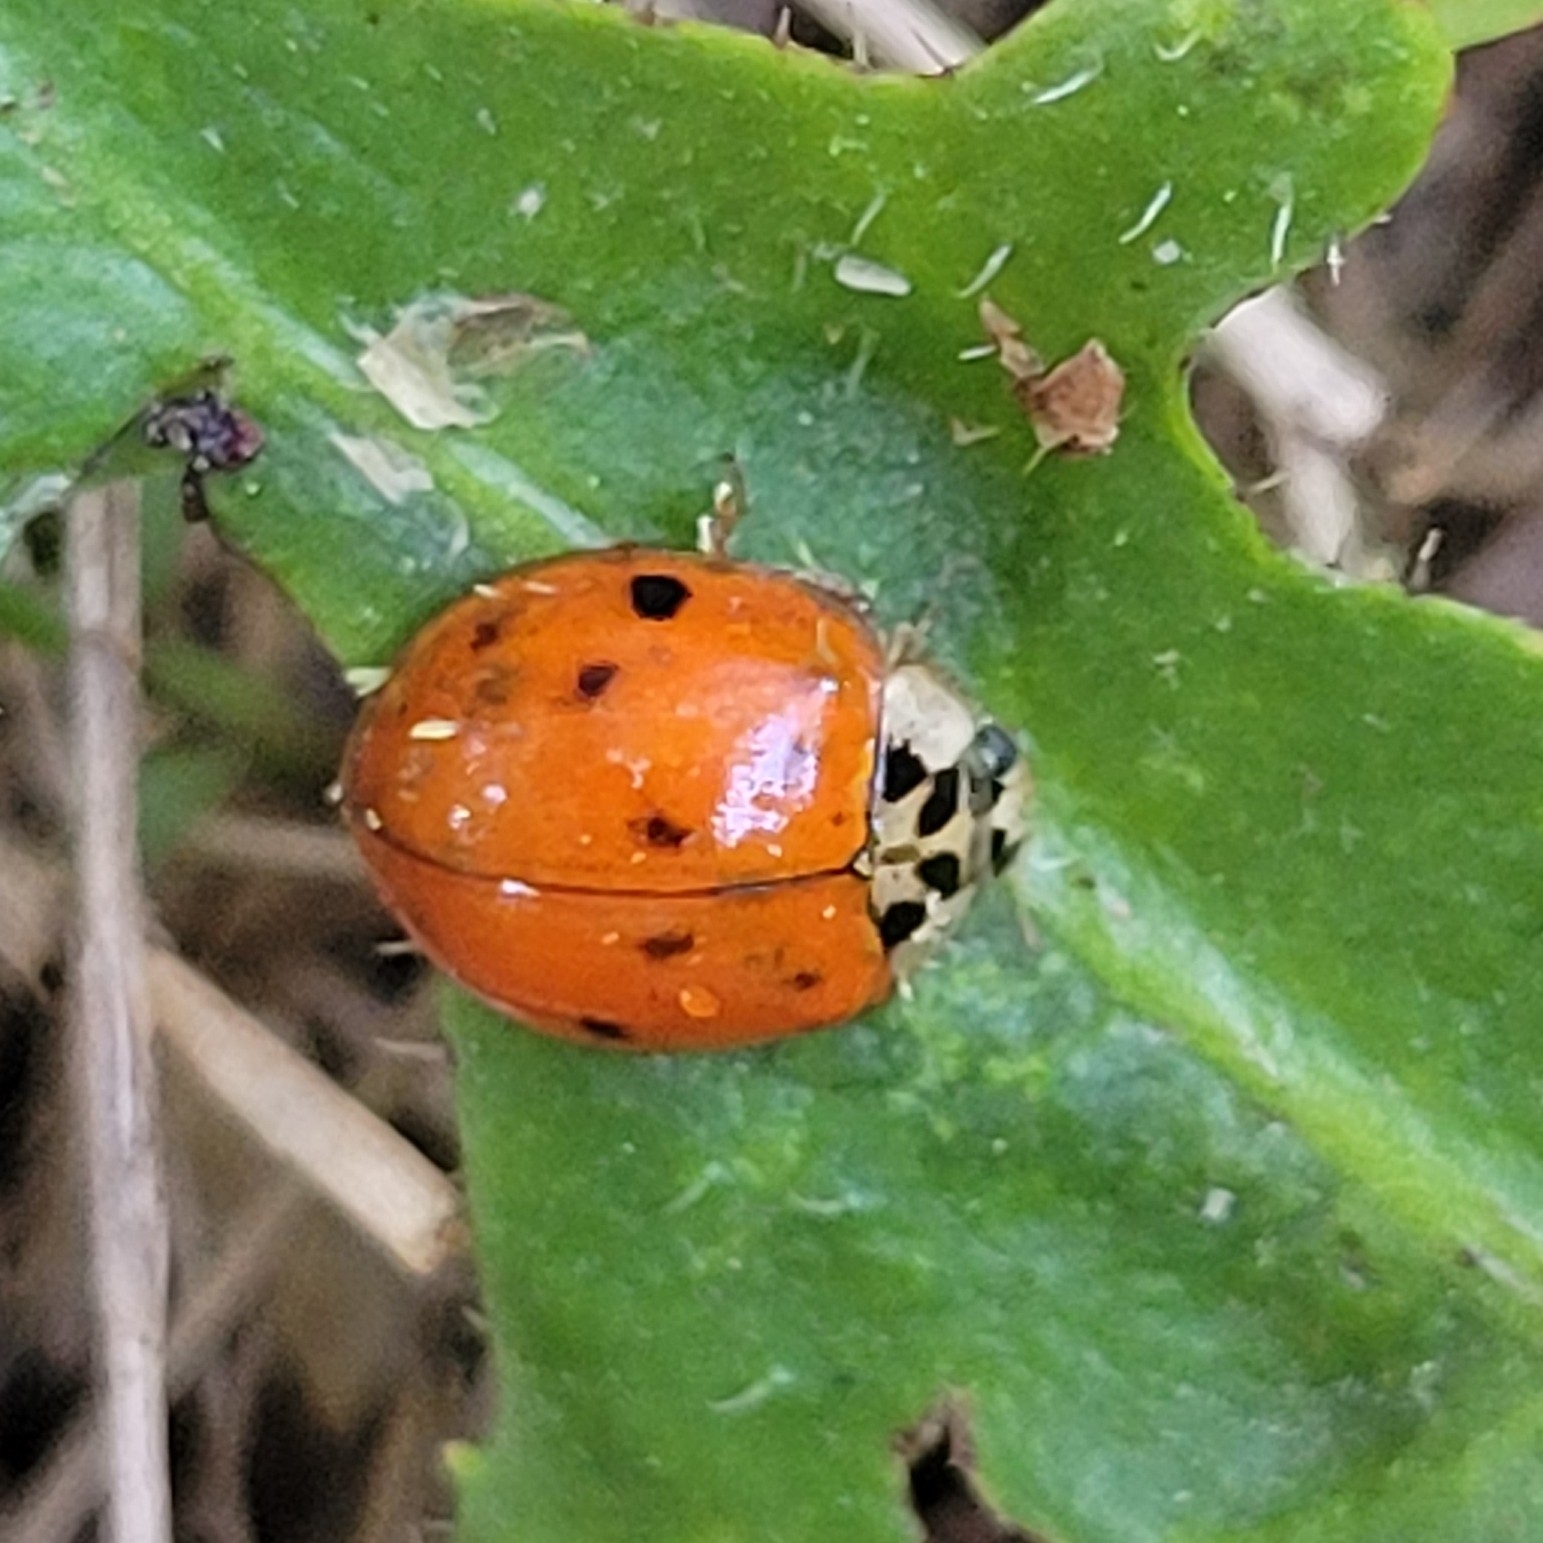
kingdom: Animalia
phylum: Arthropoda
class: Insecta
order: Coleoptera
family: Coccinellidae
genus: Harmonia
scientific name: Harmonia axyridis
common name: Harlequin ladybird
